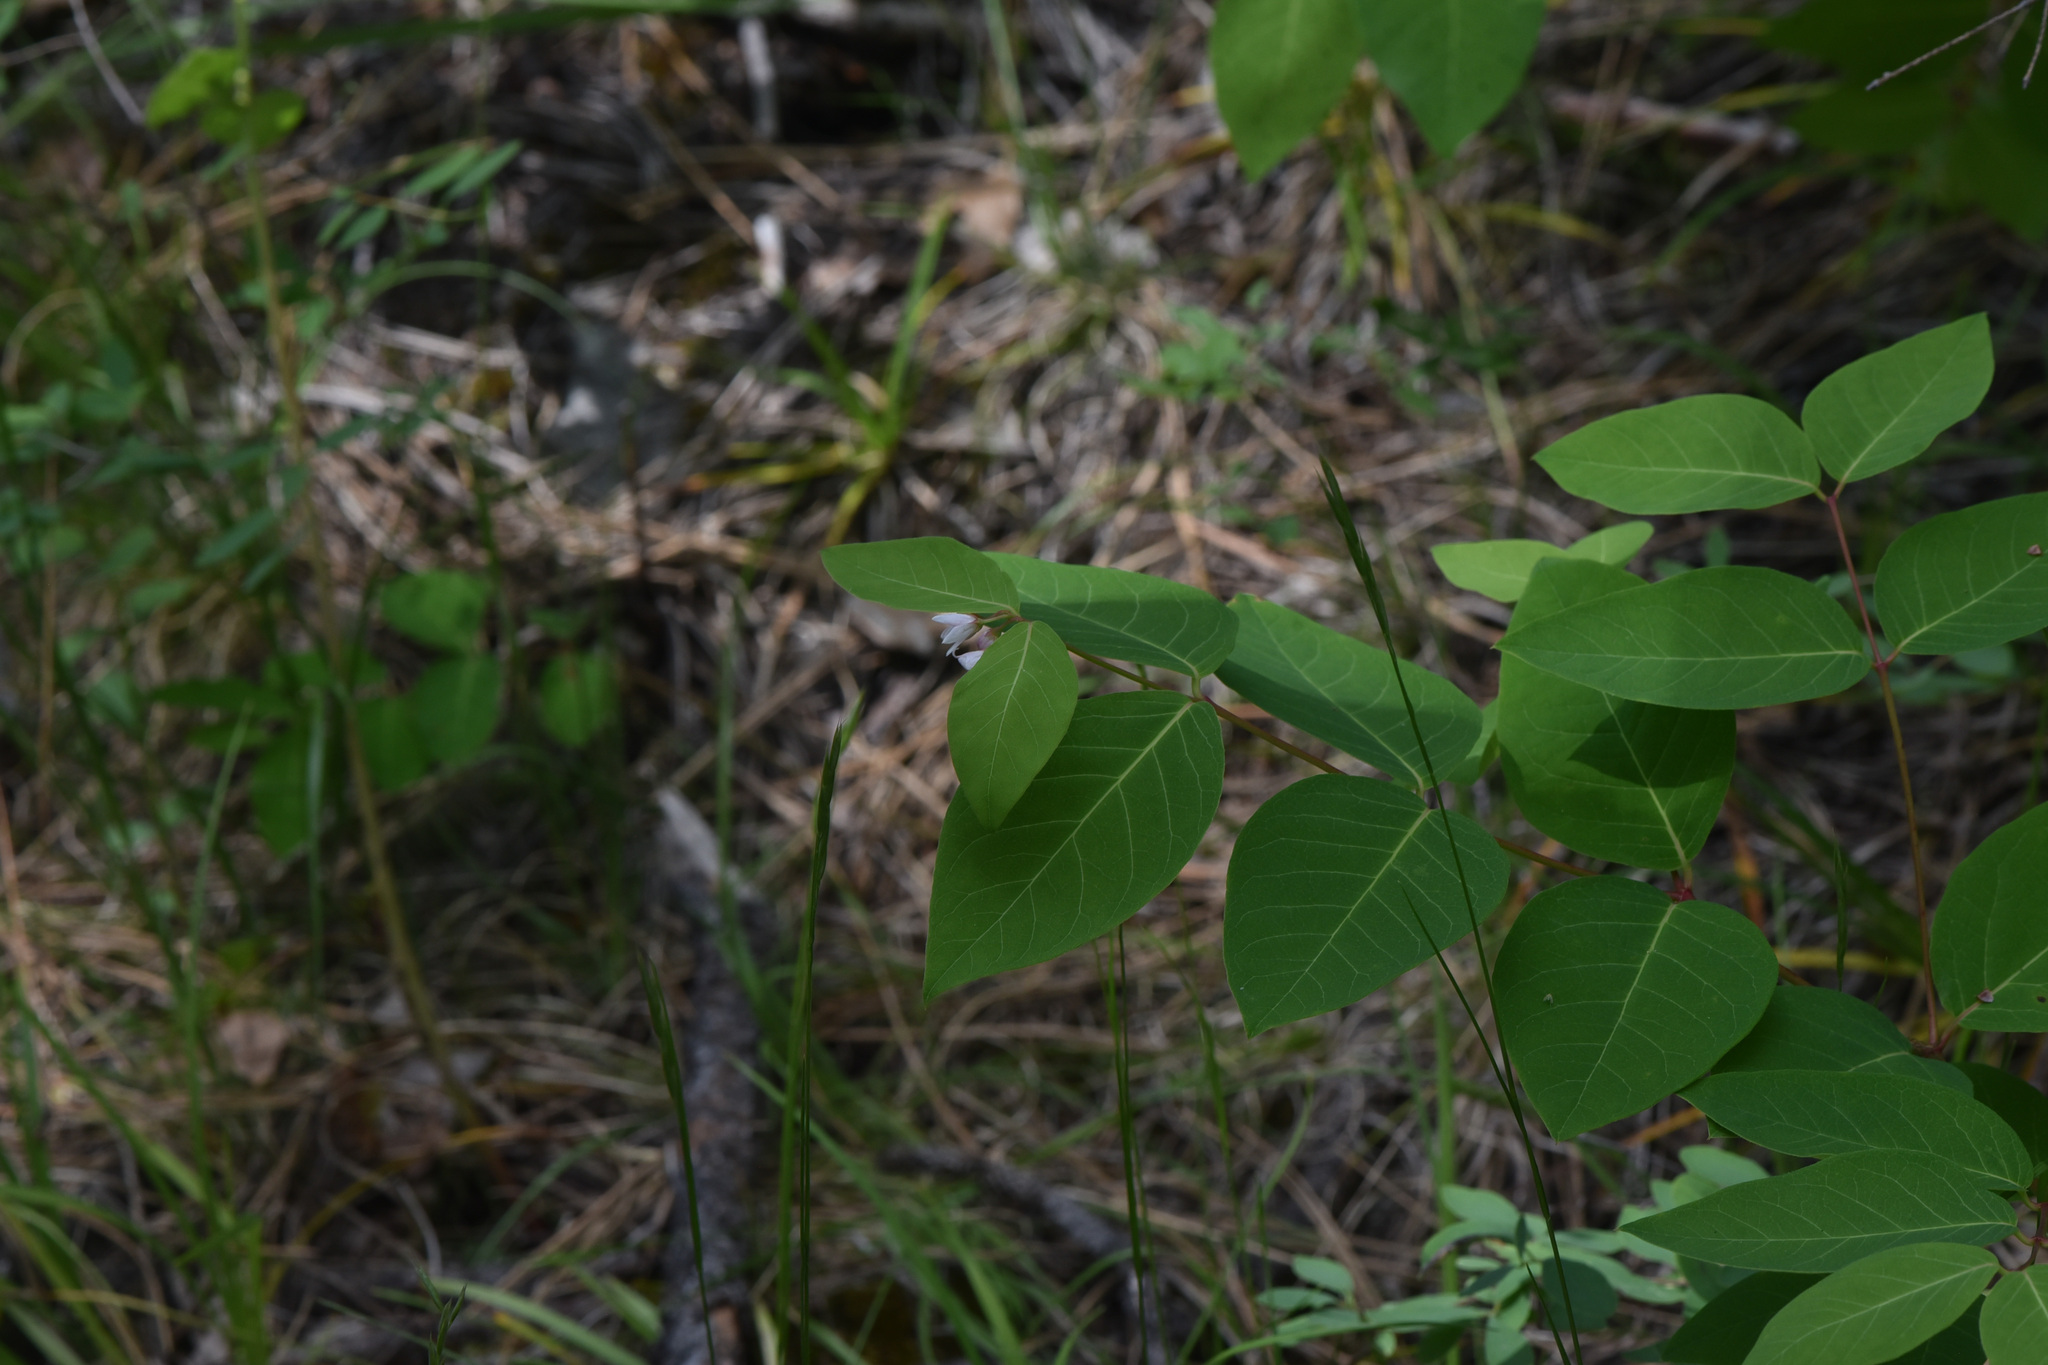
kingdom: Plantae
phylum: Tracheophyta
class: Magnoliopsida
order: Gentianales
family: Apocynaceae
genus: Apocynum
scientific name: Apocynum androsaemifolium
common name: Spreading dogbane
